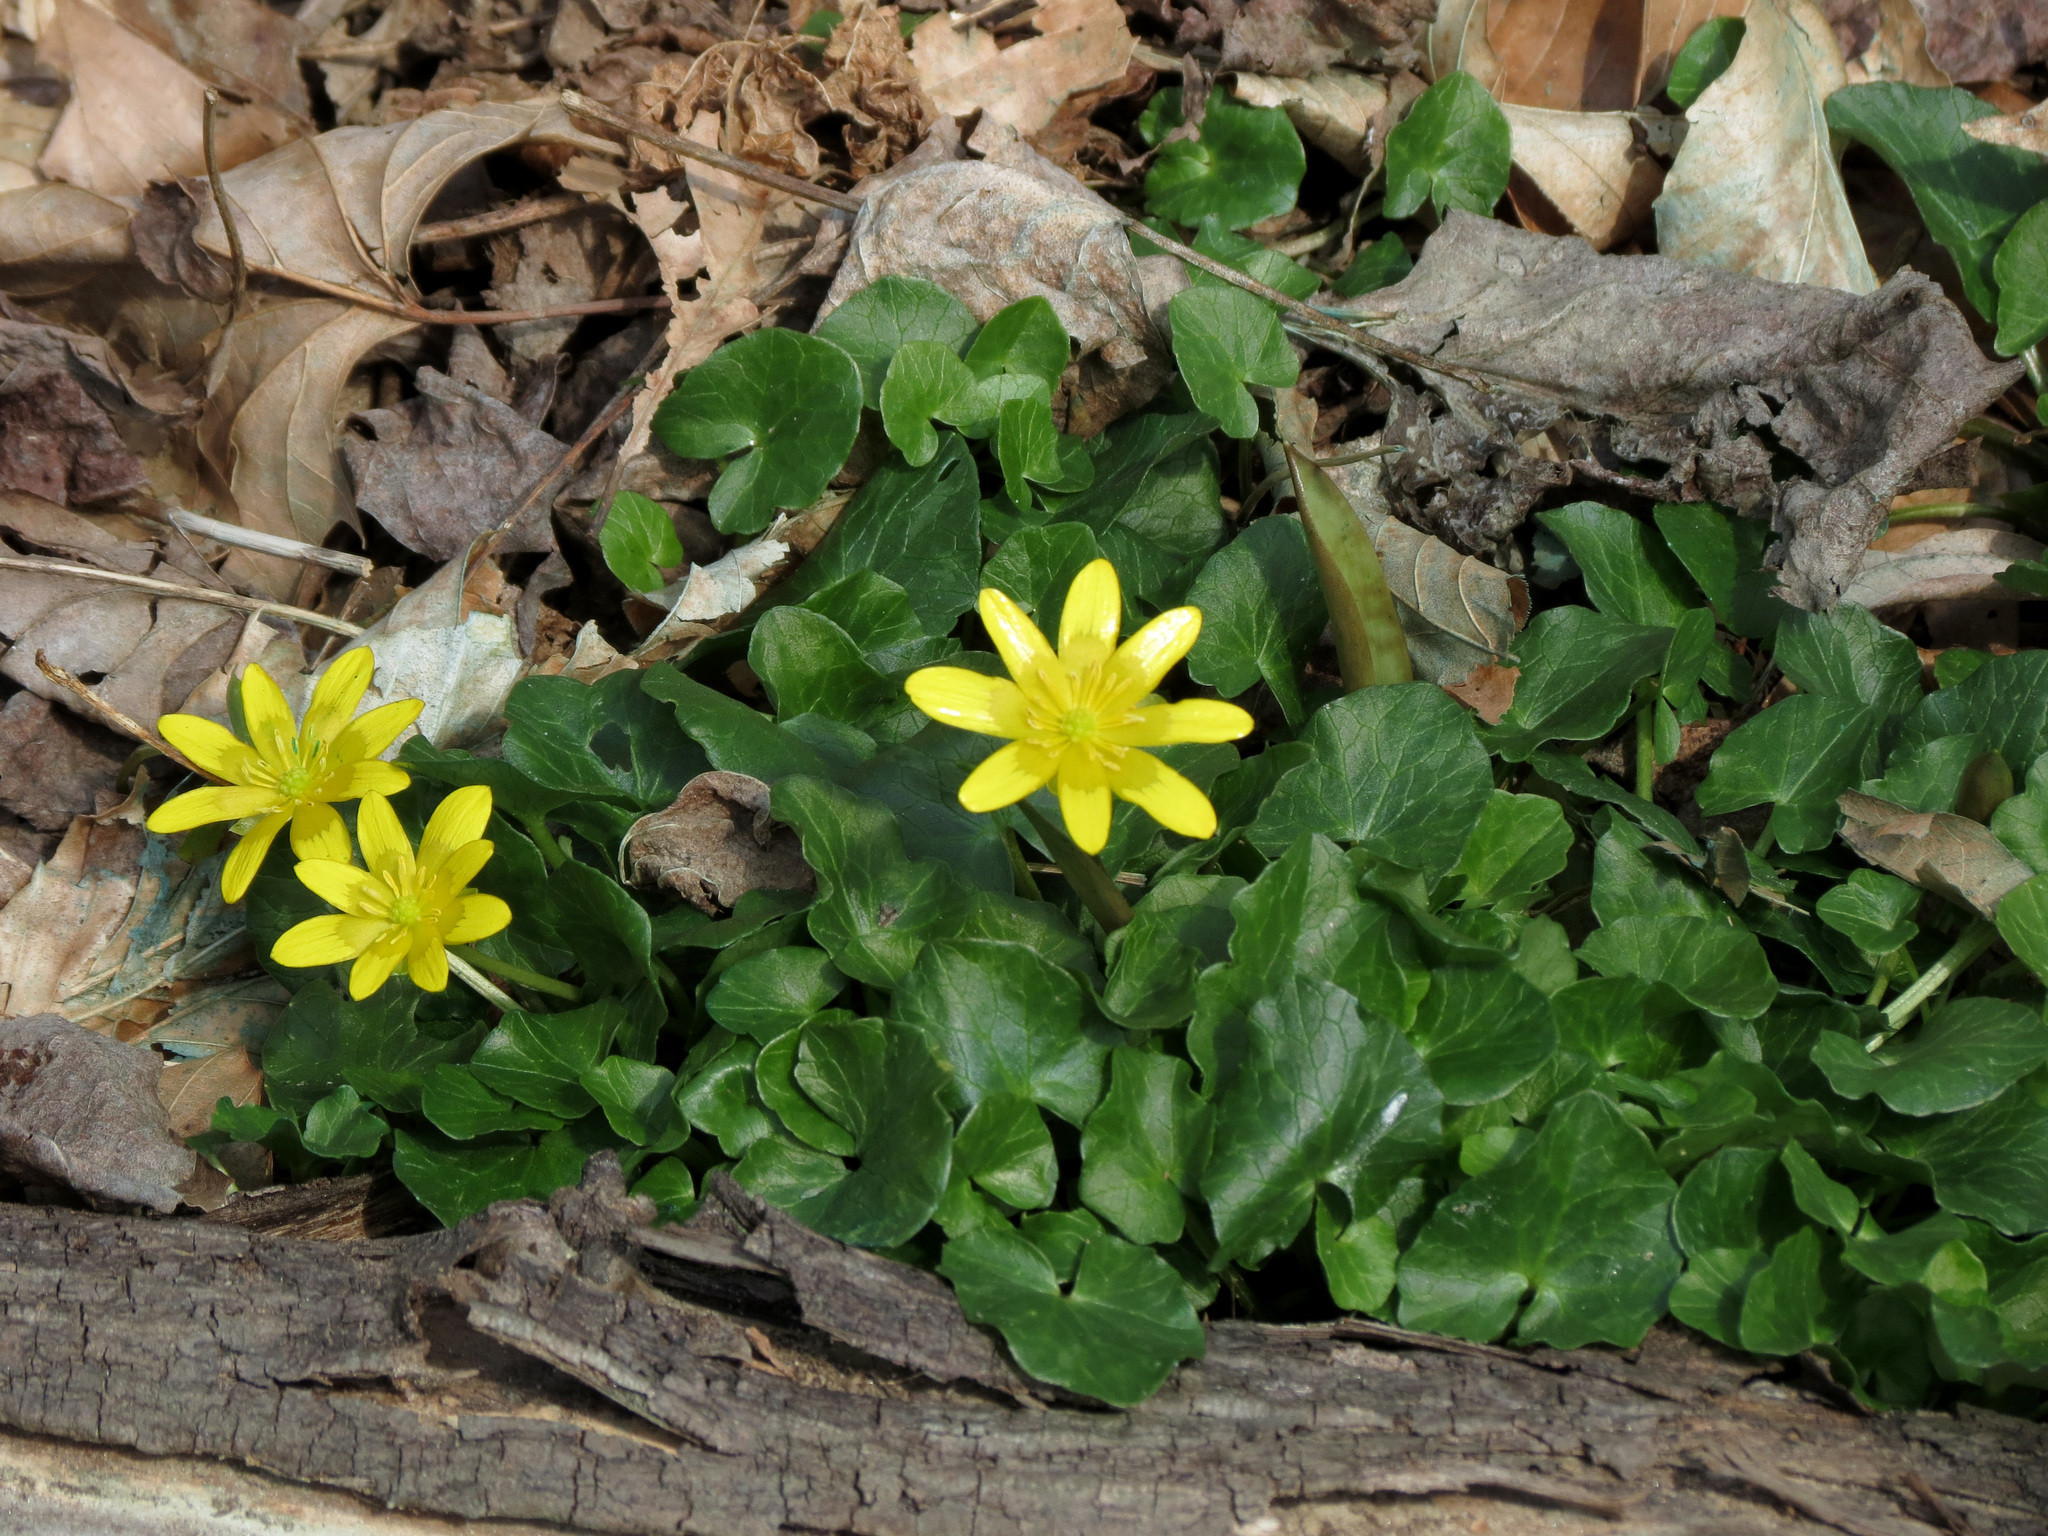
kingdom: Plantae
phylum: Tracheophyta
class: Magnoliopsida
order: Ranunculales
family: Ranunculaceae
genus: Ficaria
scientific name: Ficaria verna
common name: Lesser celandine
